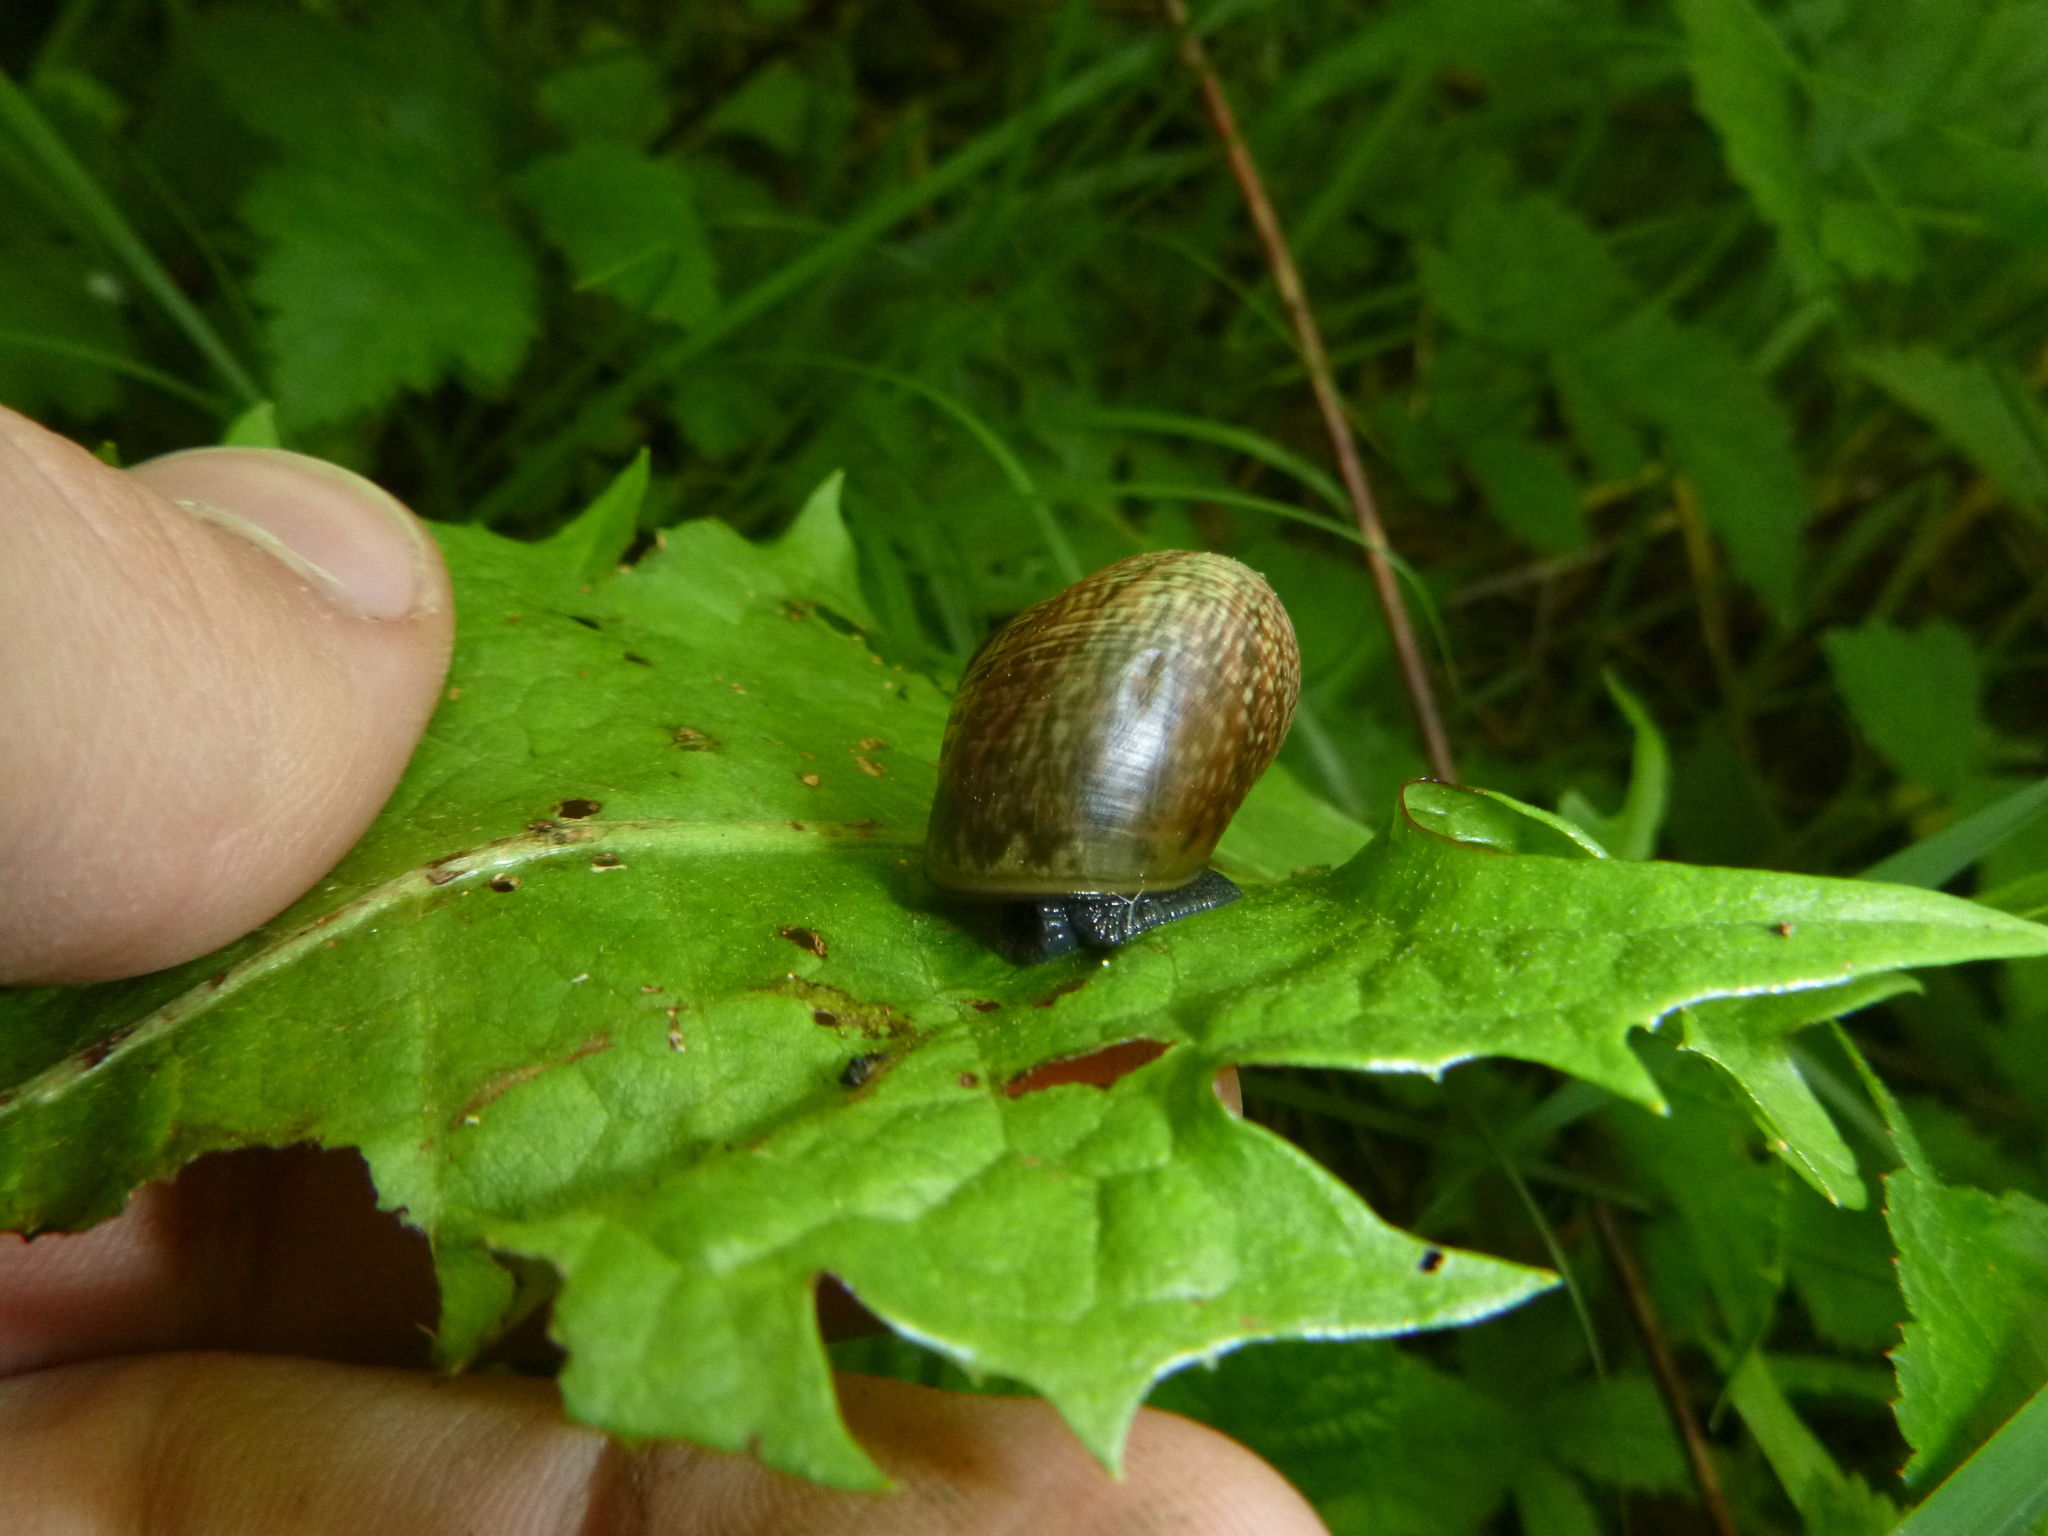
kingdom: Animalia
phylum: Mollusca
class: Gastropoda
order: Stylommatophora
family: Helicidae
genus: Arianta
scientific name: Arianta arbustorum
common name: Copse snail
